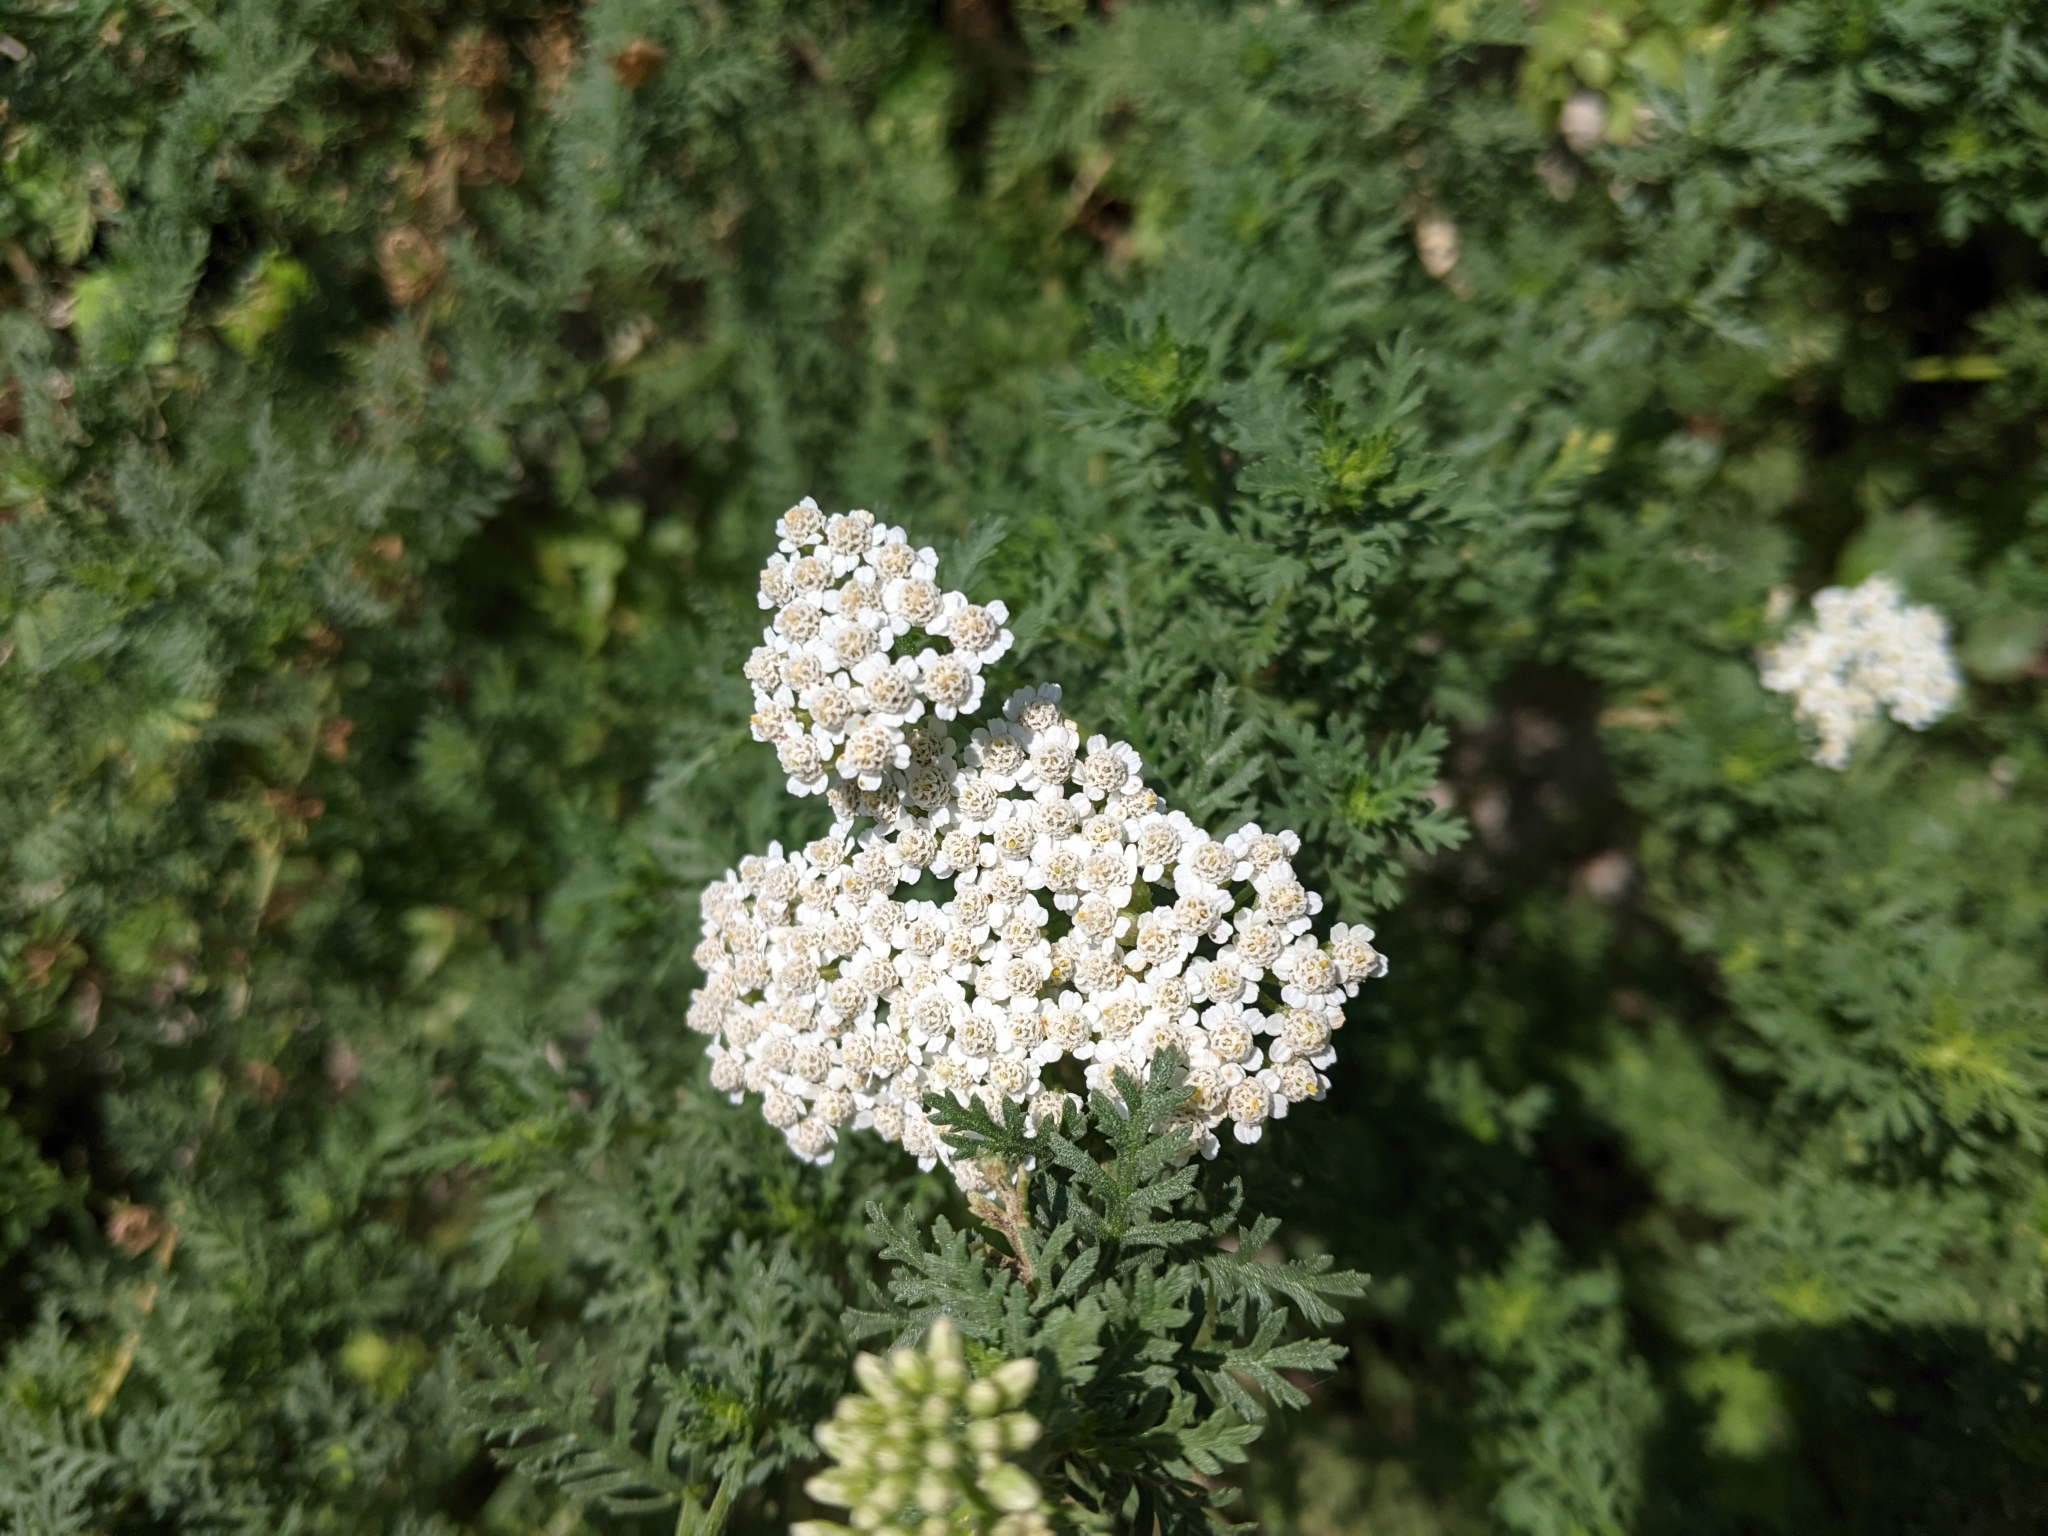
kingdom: Plantae
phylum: Tracheophyta
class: Magnoliopsida
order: Asterales
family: Asteraceae
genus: Achillea
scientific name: Achillea ligustica
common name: Southern yarrow
